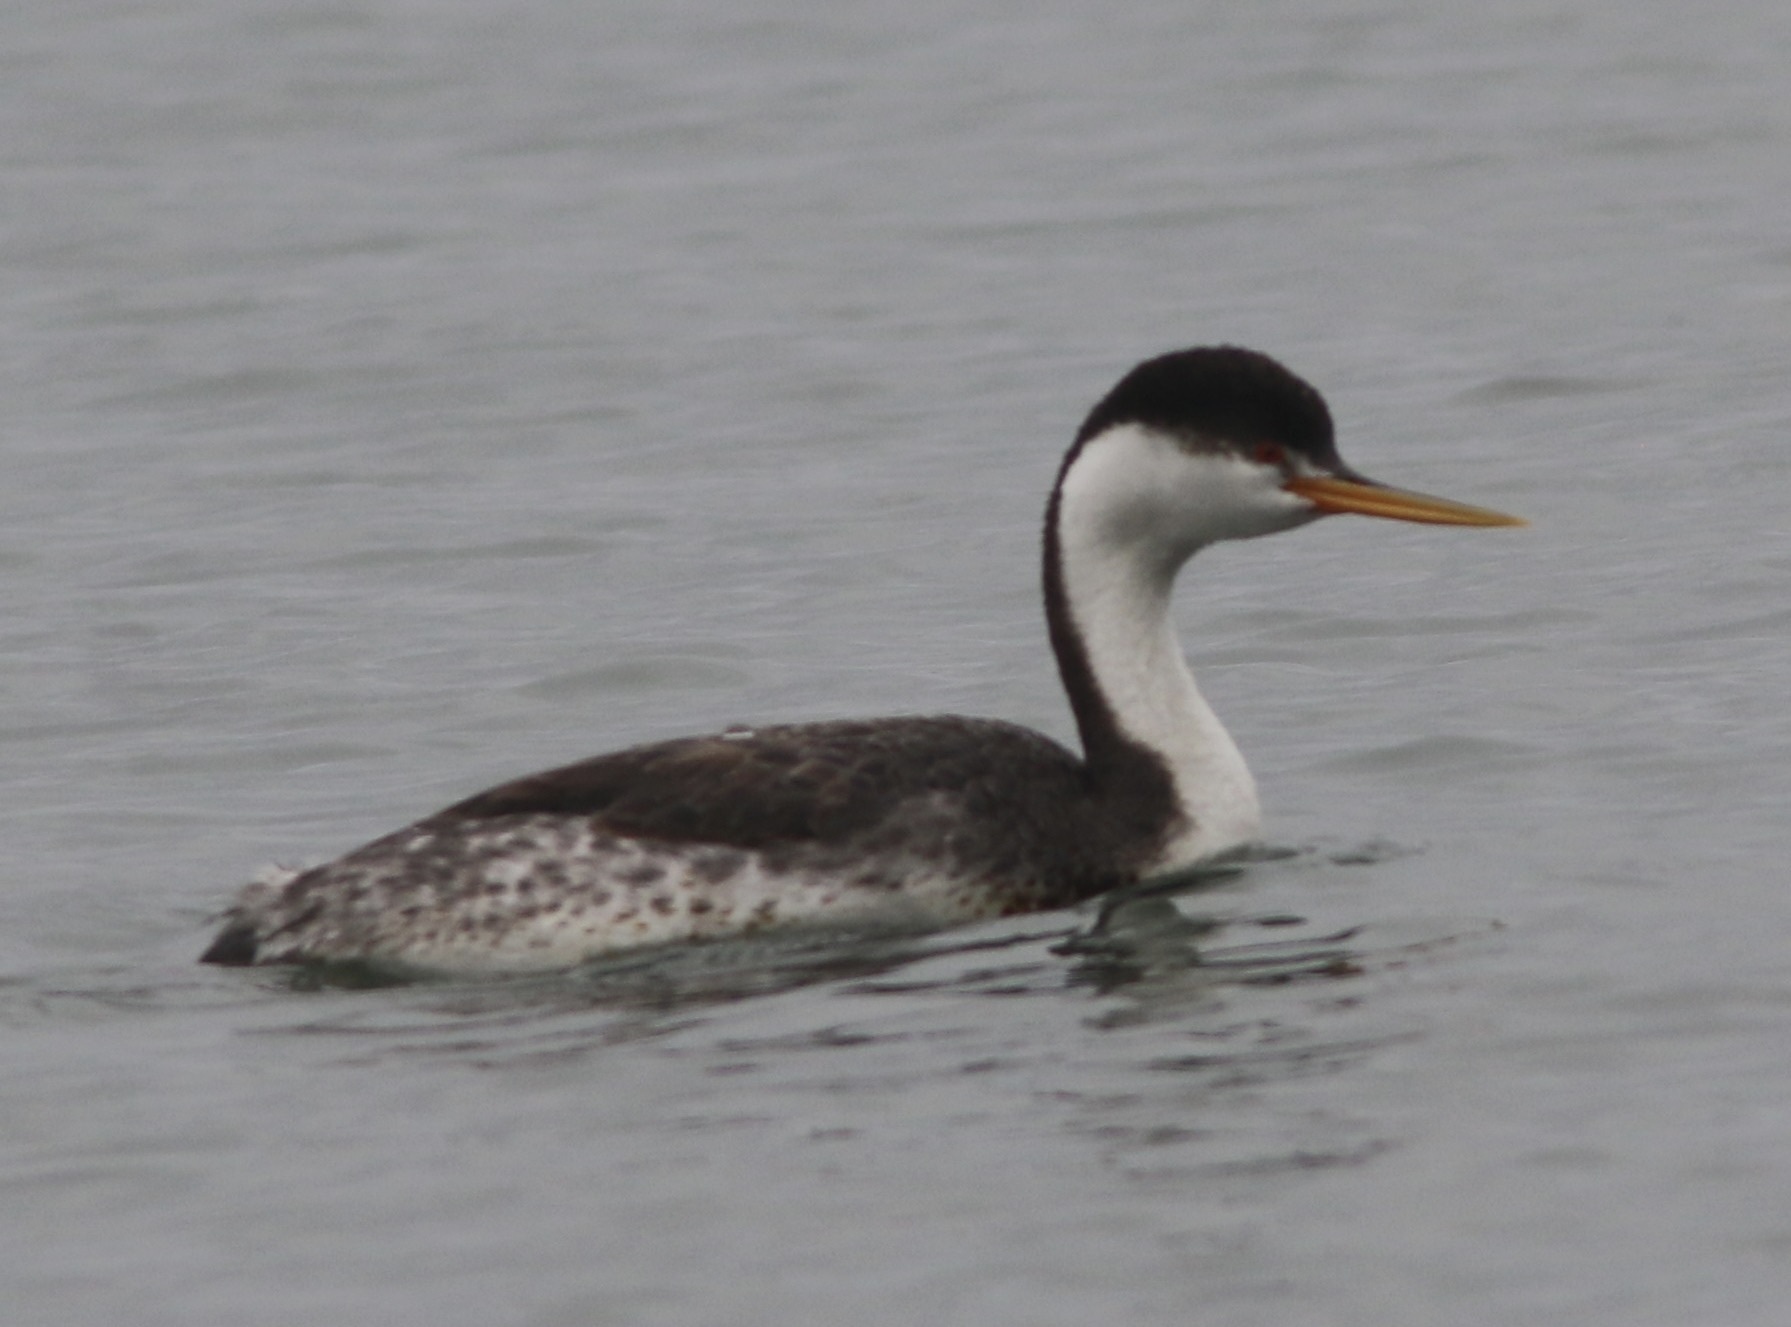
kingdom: Animalia
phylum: Chordata
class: Aves
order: Podicipediformes
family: Podicipedidae
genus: Aechmophorus
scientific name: Aechmophorus clarkii
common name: Clark's grebe
